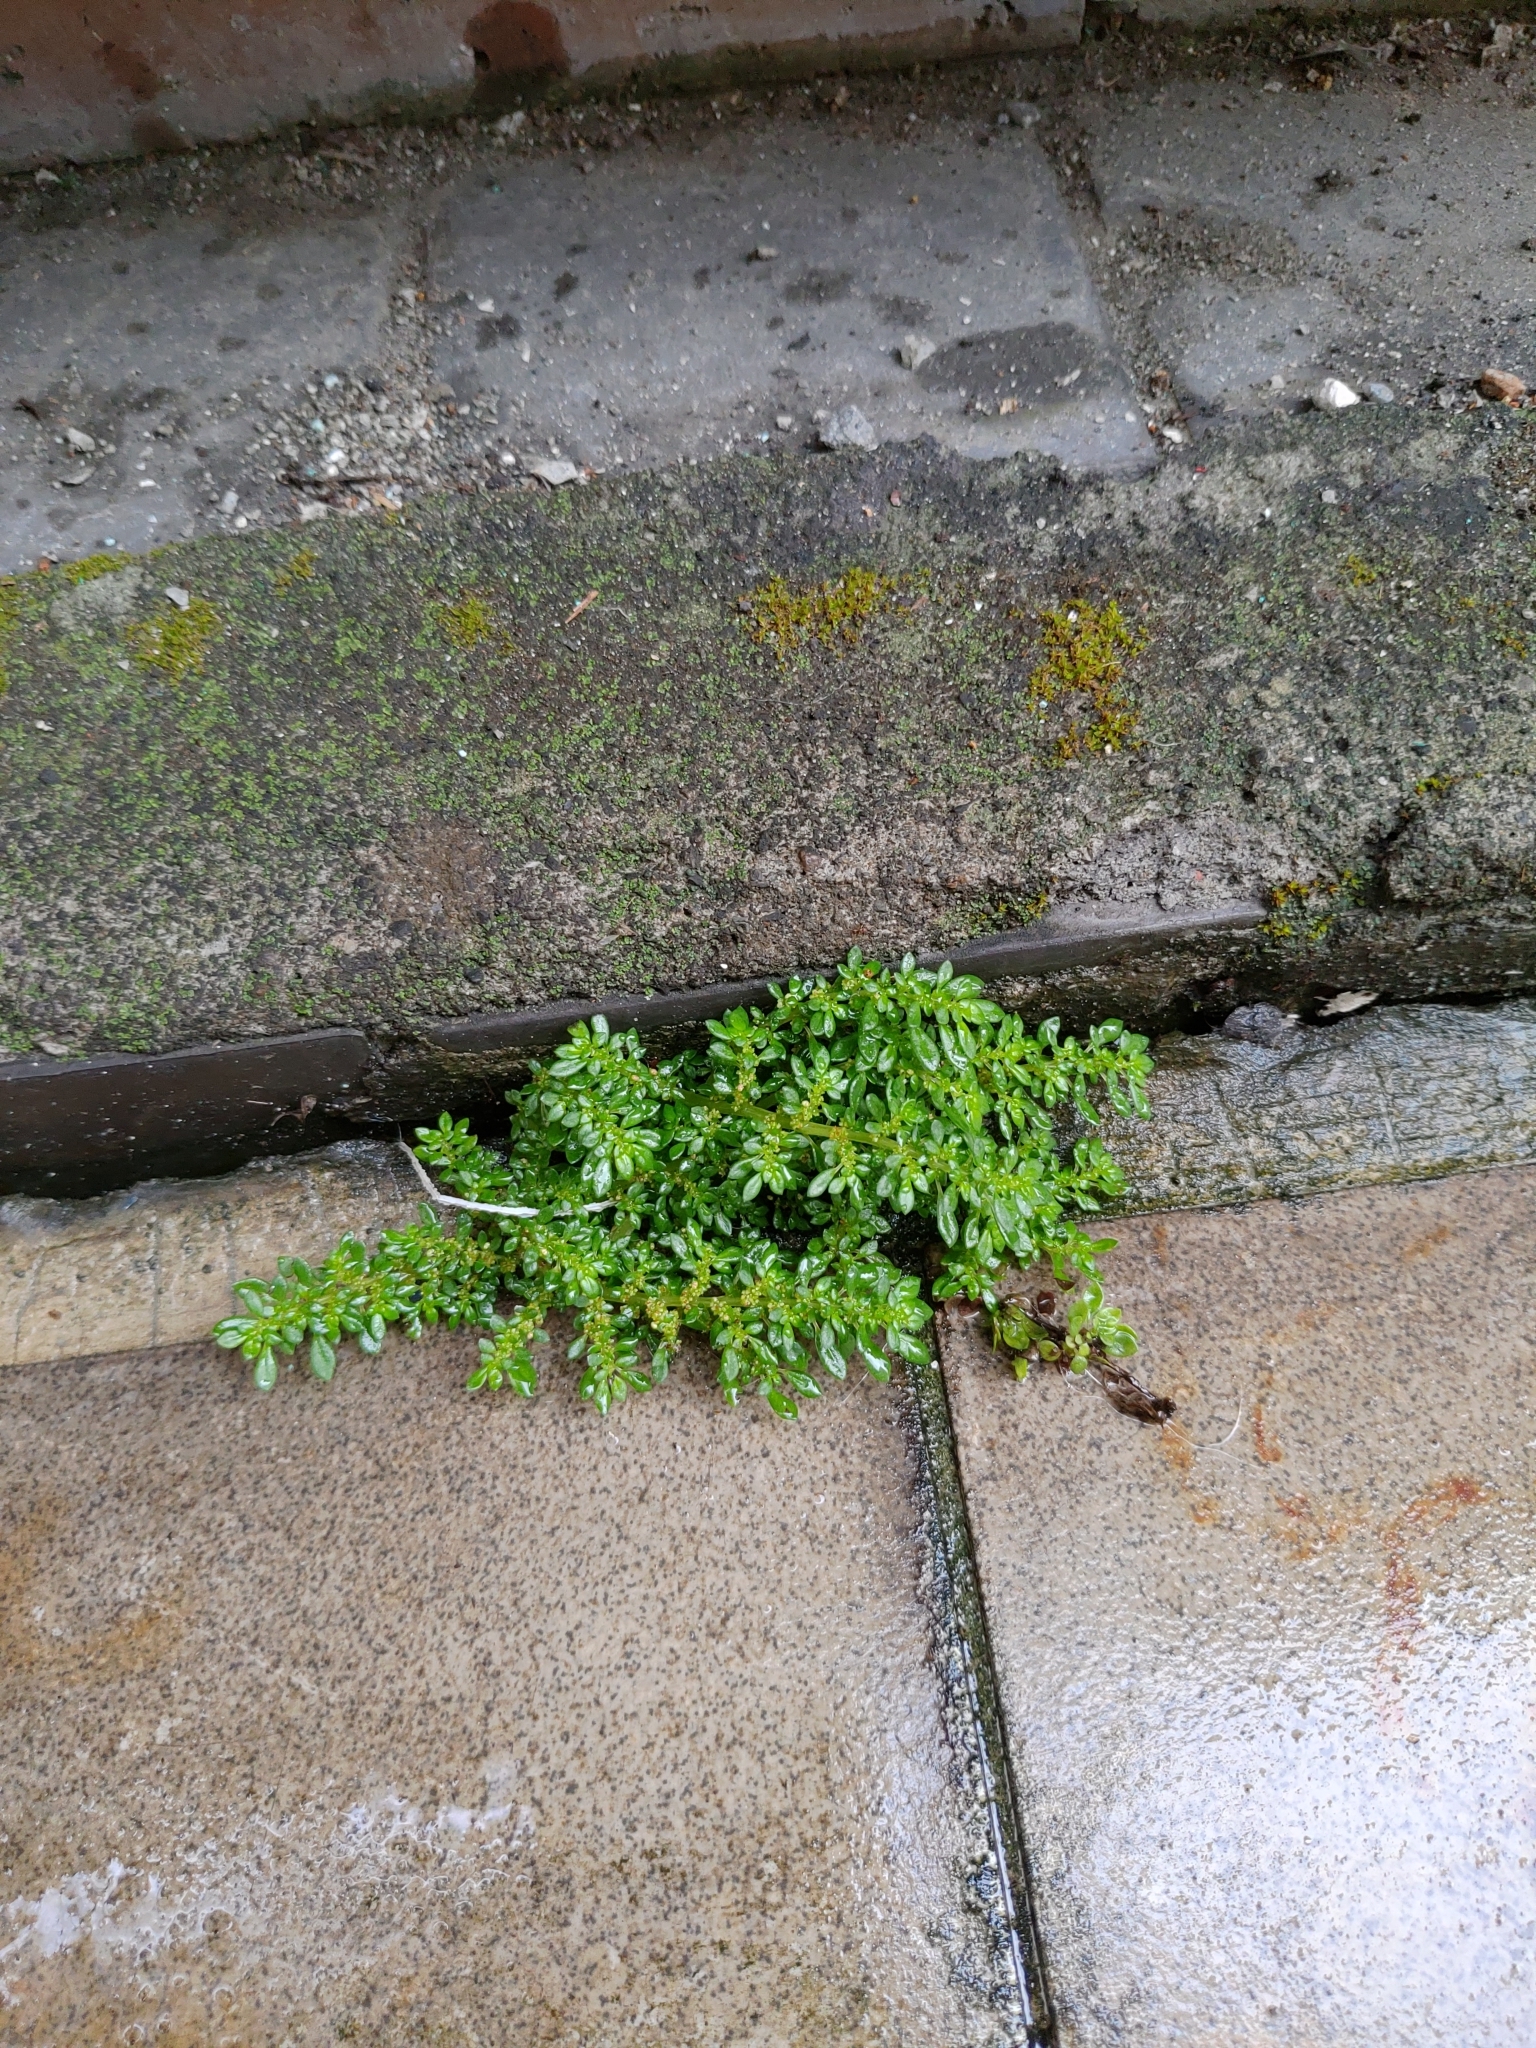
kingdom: Plantae
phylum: Tracheophyta
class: Magnoliopsida
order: Rosales
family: Urticaceae
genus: Pilea
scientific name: Pilea microphylla
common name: Artillery-plant
